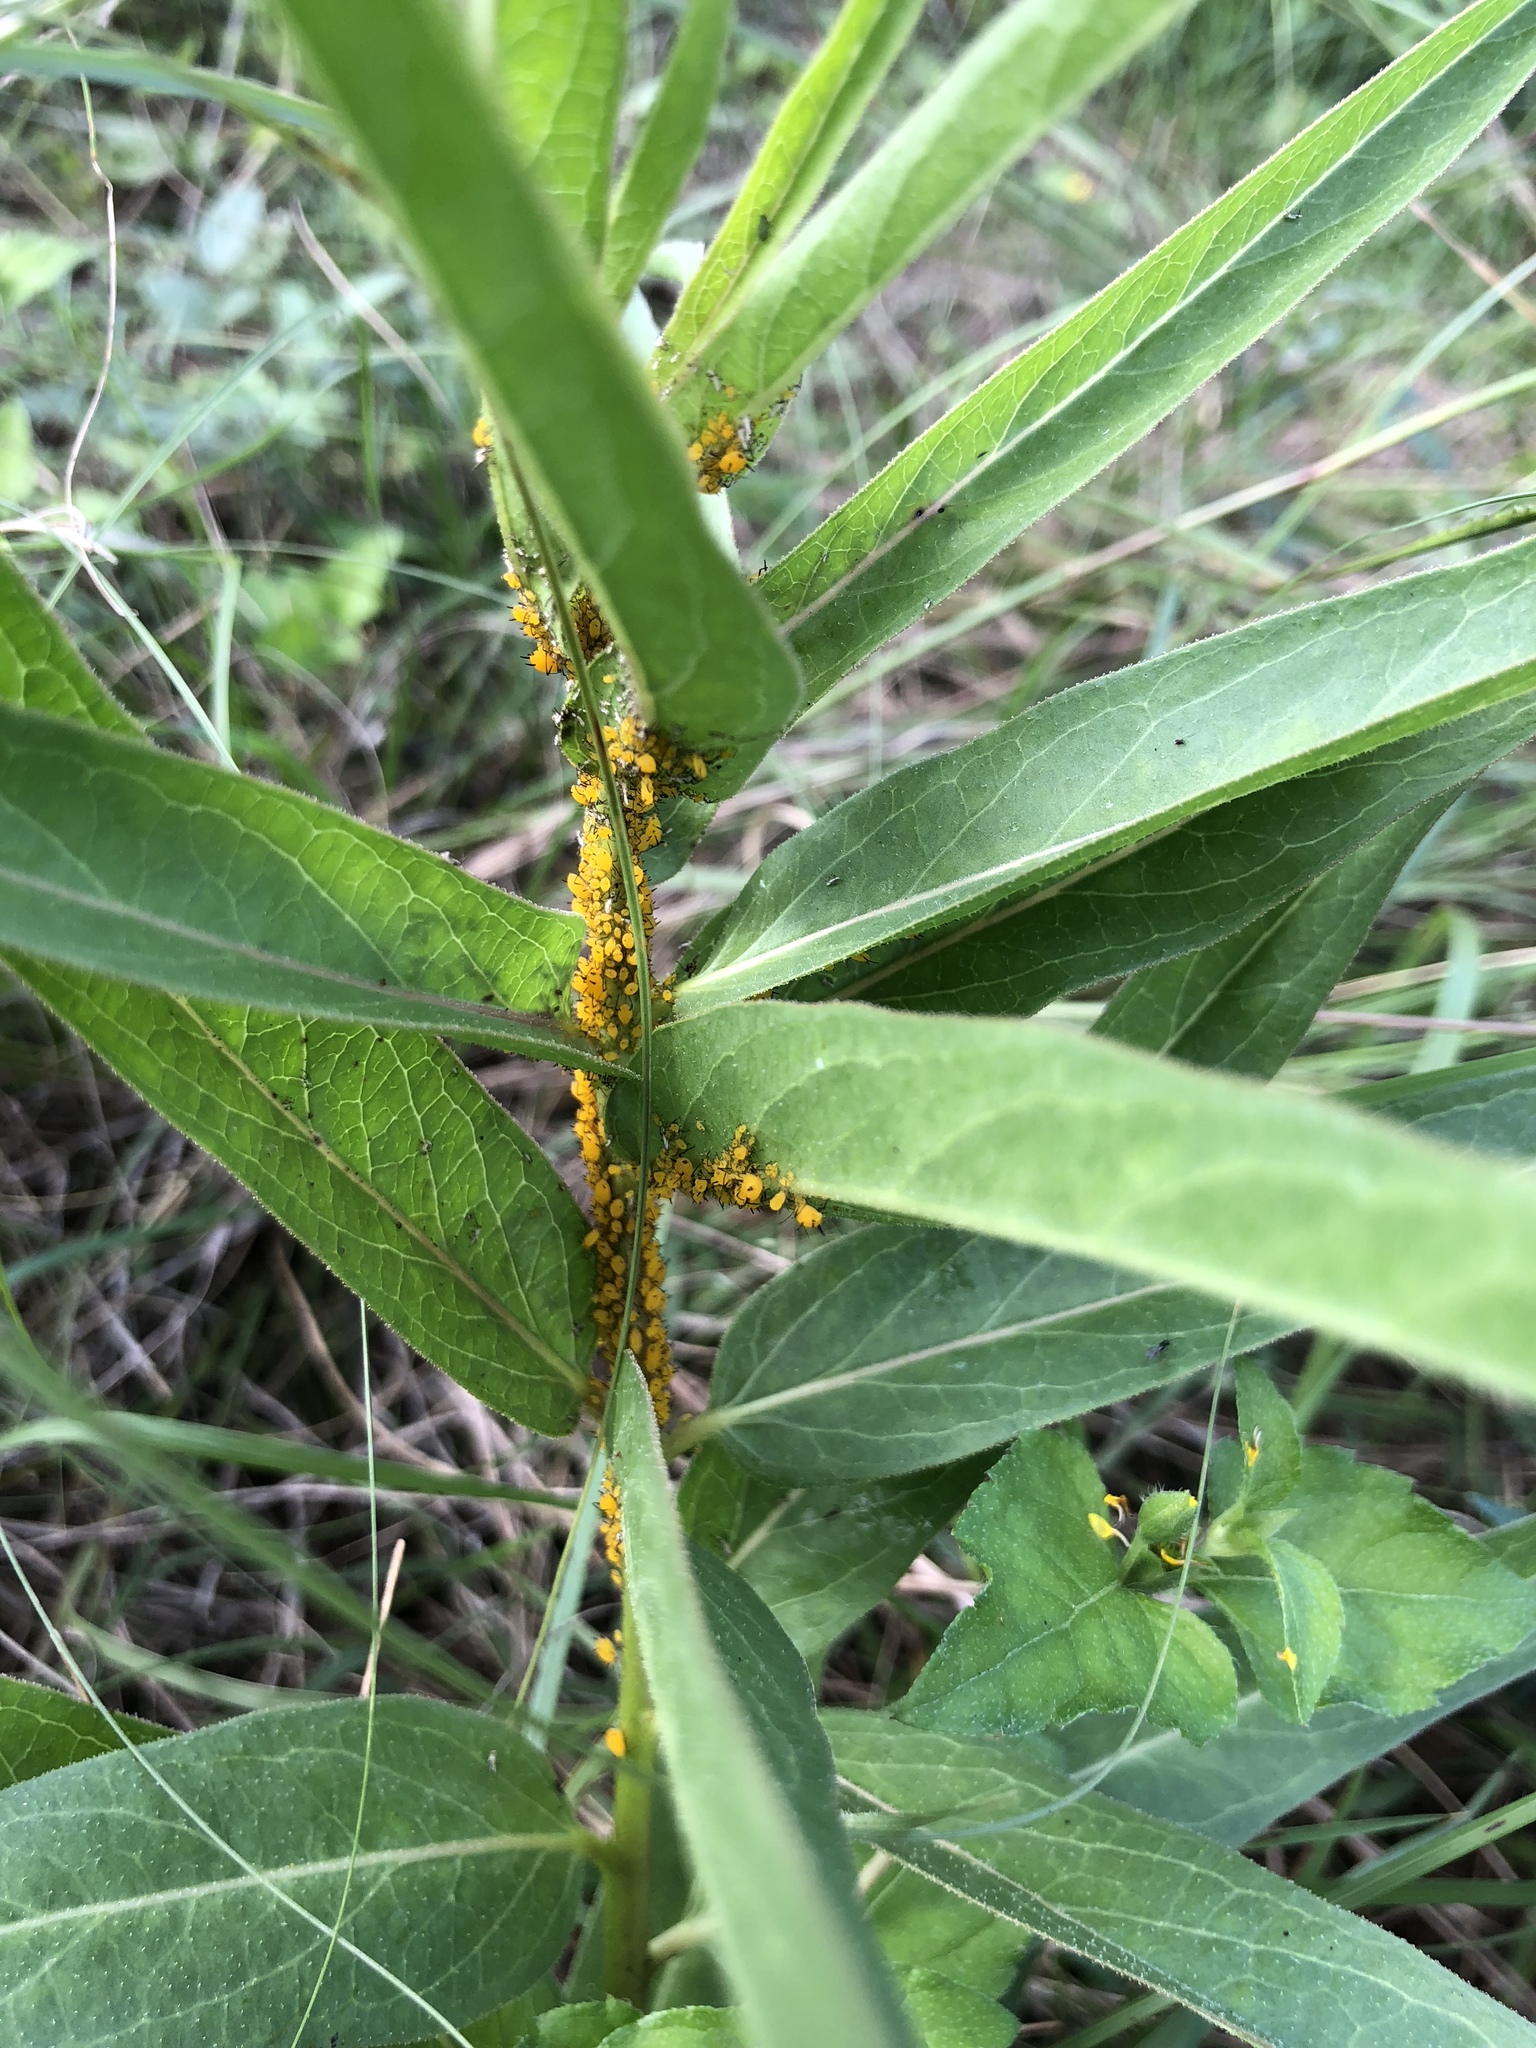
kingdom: Animalia
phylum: Arthropoda
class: Insecta
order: Hemiptera
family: Aphididae
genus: Aphis
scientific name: Aphis nerii
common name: Oleander aphid
